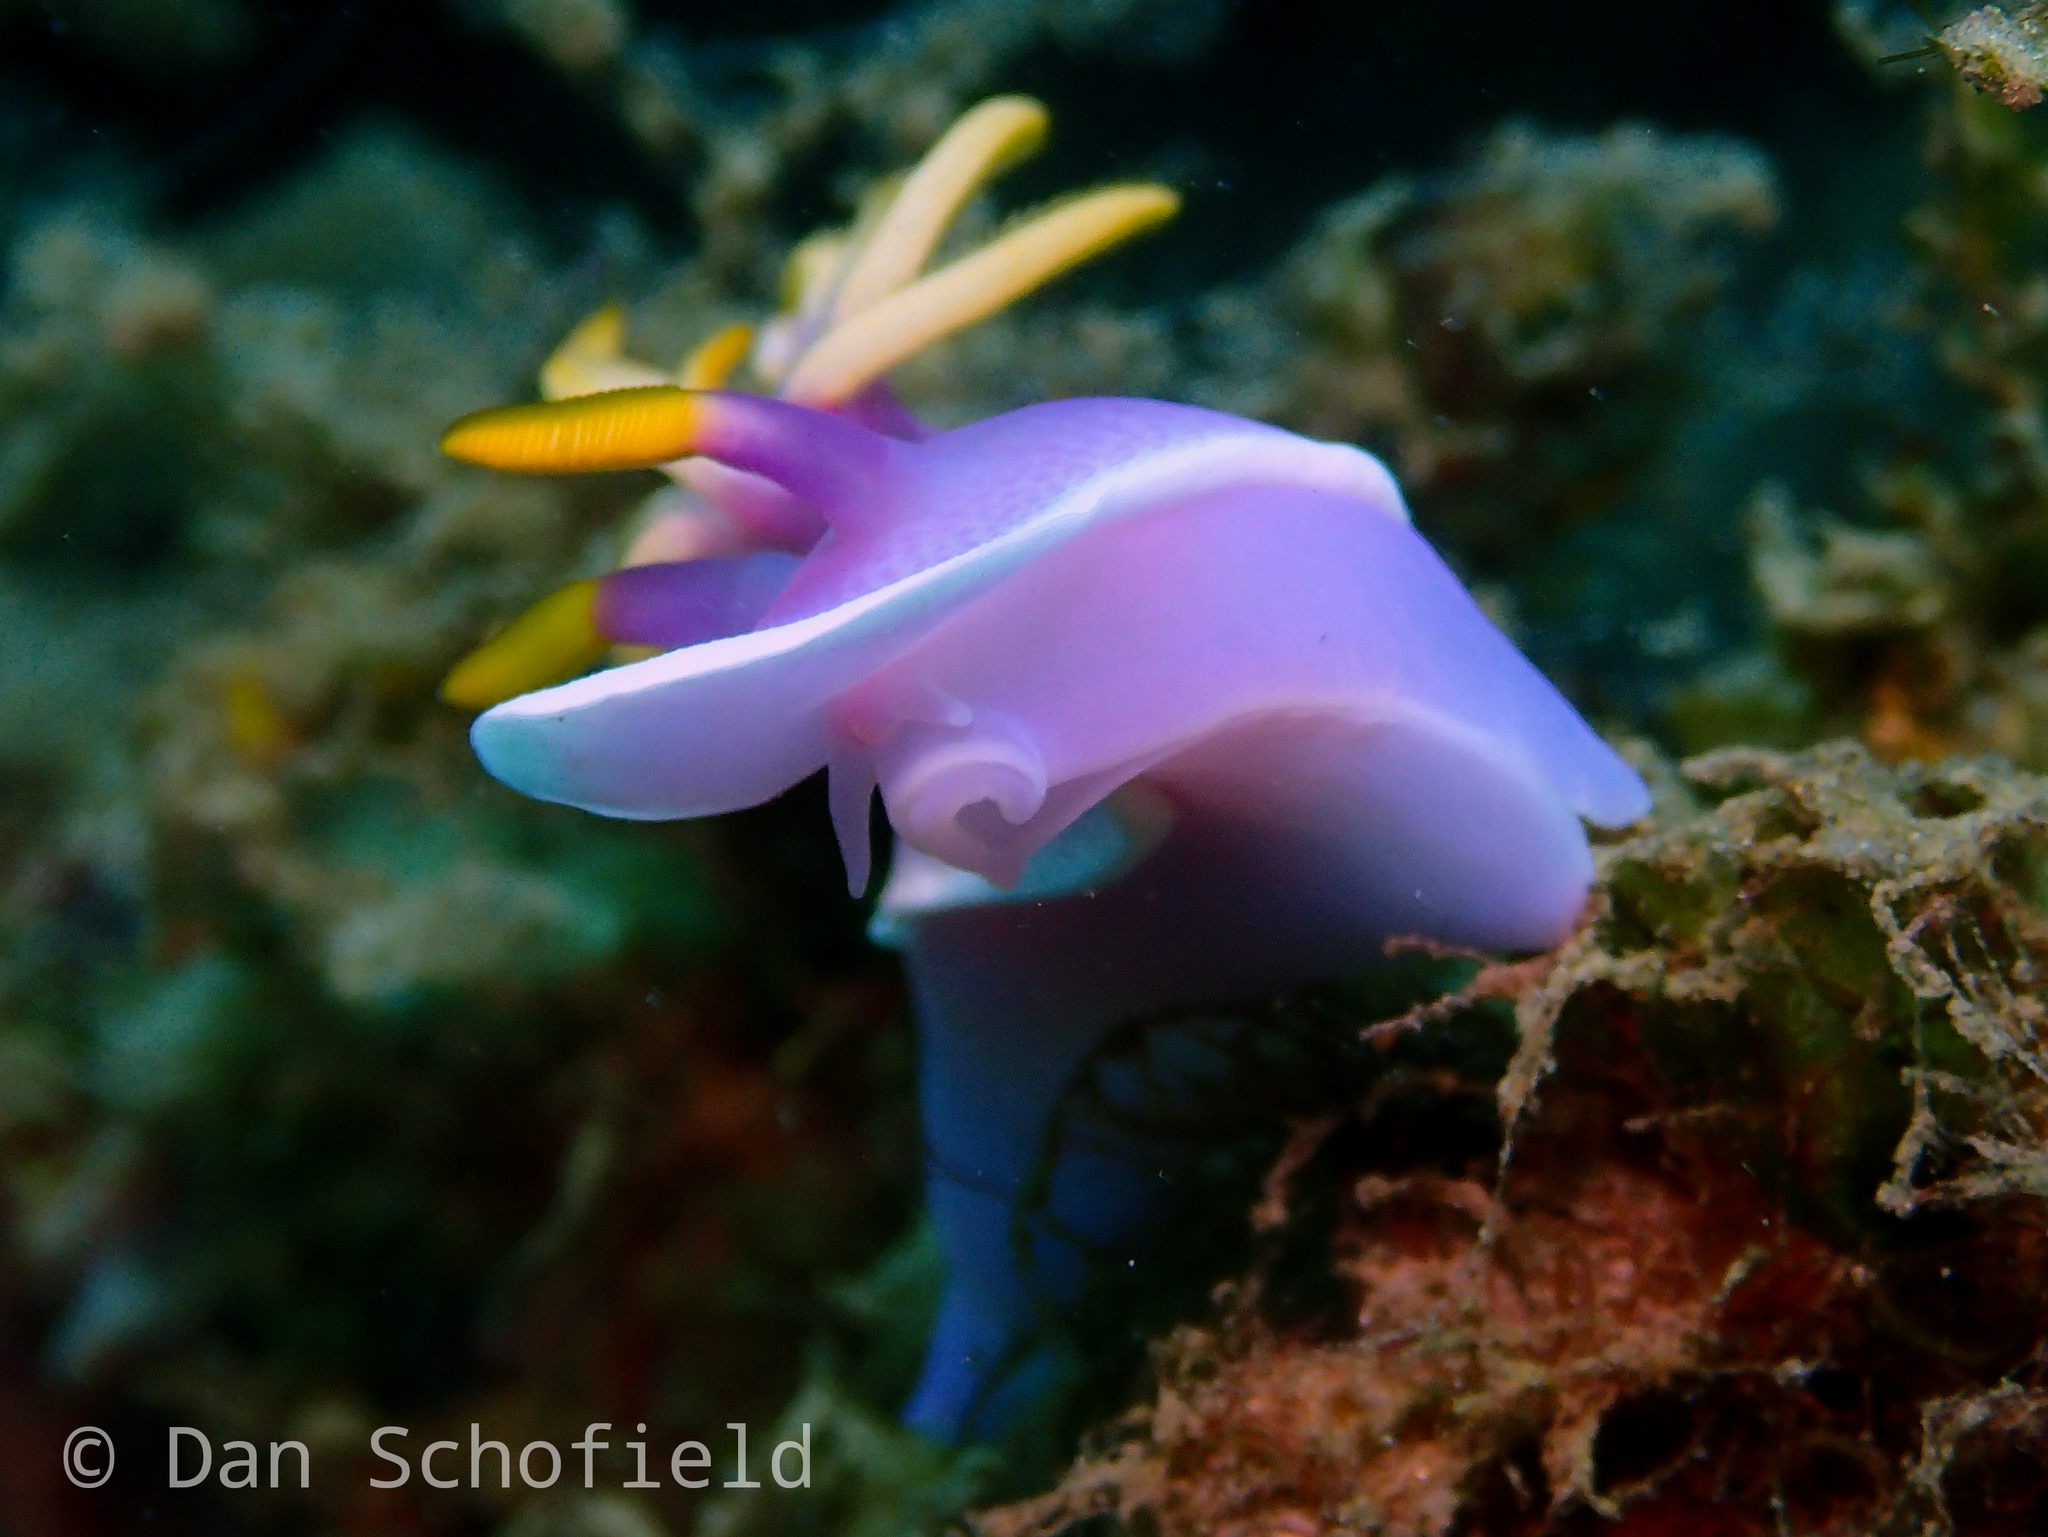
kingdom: Animalia
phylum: Mollusca
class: Gastropoda
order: Nudibranchia
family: Chromodorididae
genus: Hypselodoris
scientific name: Hypselodoris apolegma
